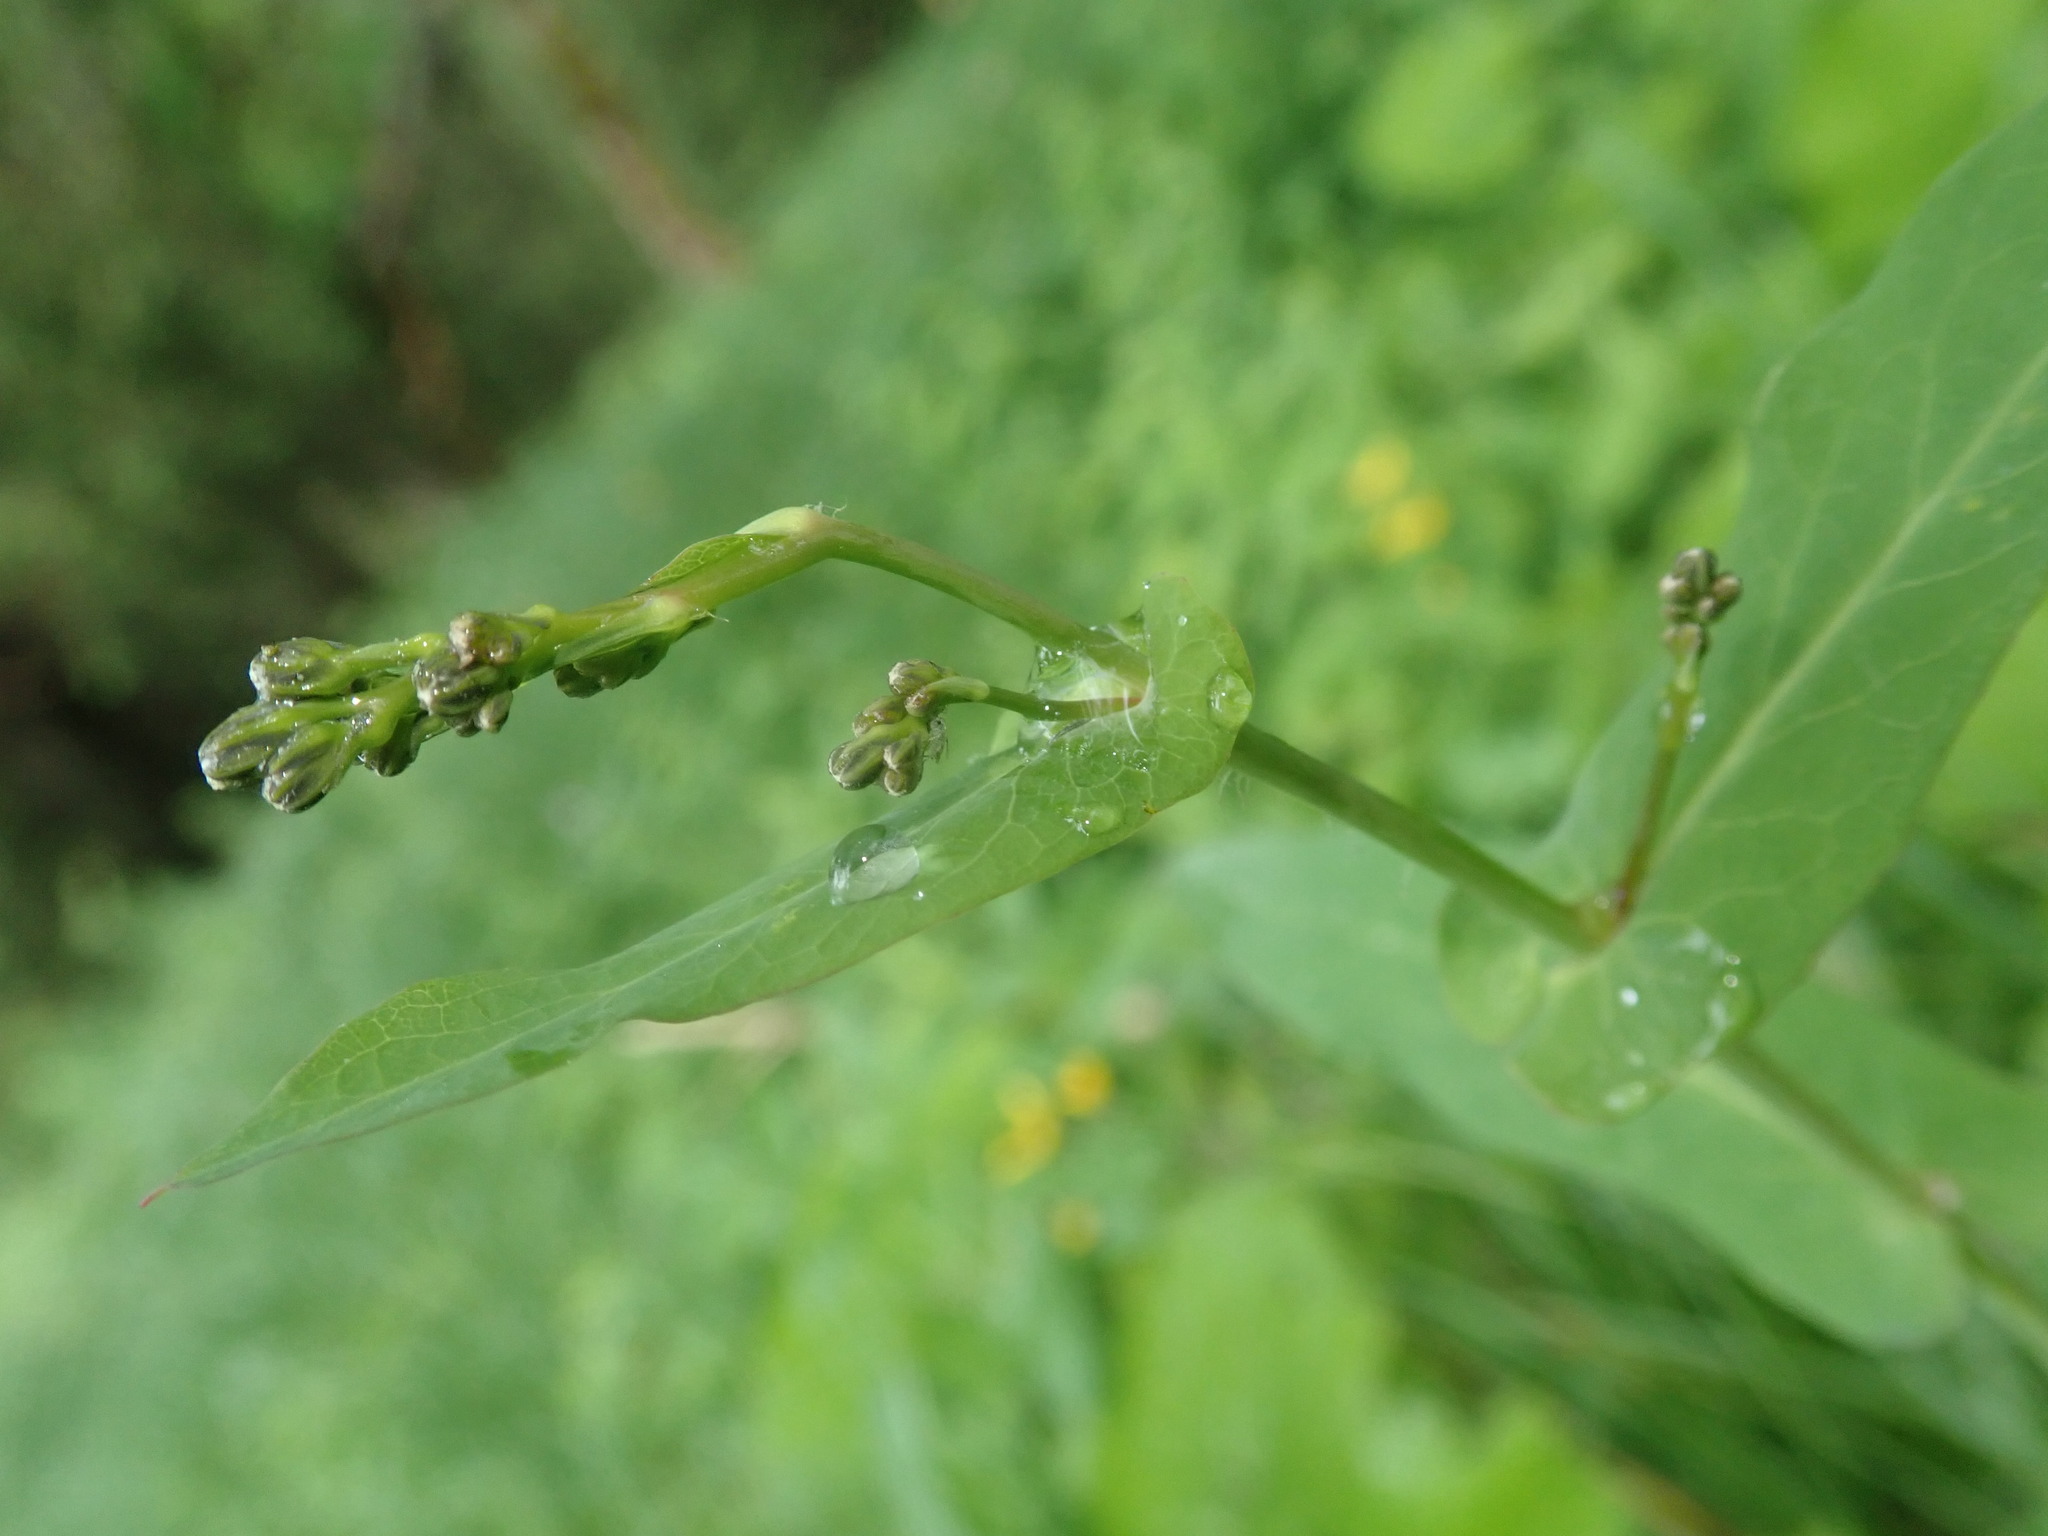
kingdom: Plantae
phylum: Tracheophyta
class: Magnoliopsida
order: Asterales
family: Asteraceae
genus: Prenanthes
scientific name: Prenanthes purpurea
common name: Purple lettuce
